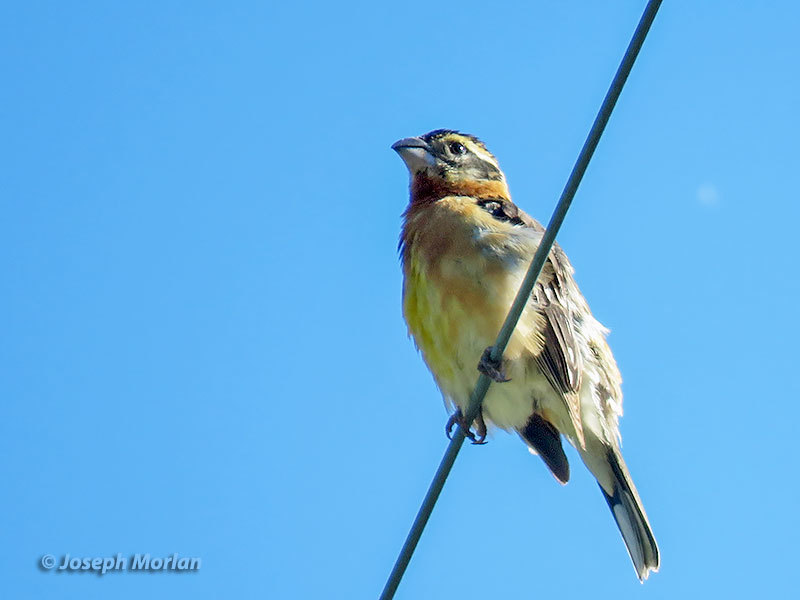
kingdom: Animalia
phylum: Chordata
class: Aves
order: Passeriformes
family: Cardinalidae
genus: Pheucticus
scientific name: Pheucticus melanocephalus
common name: Black-headed grosbeak
